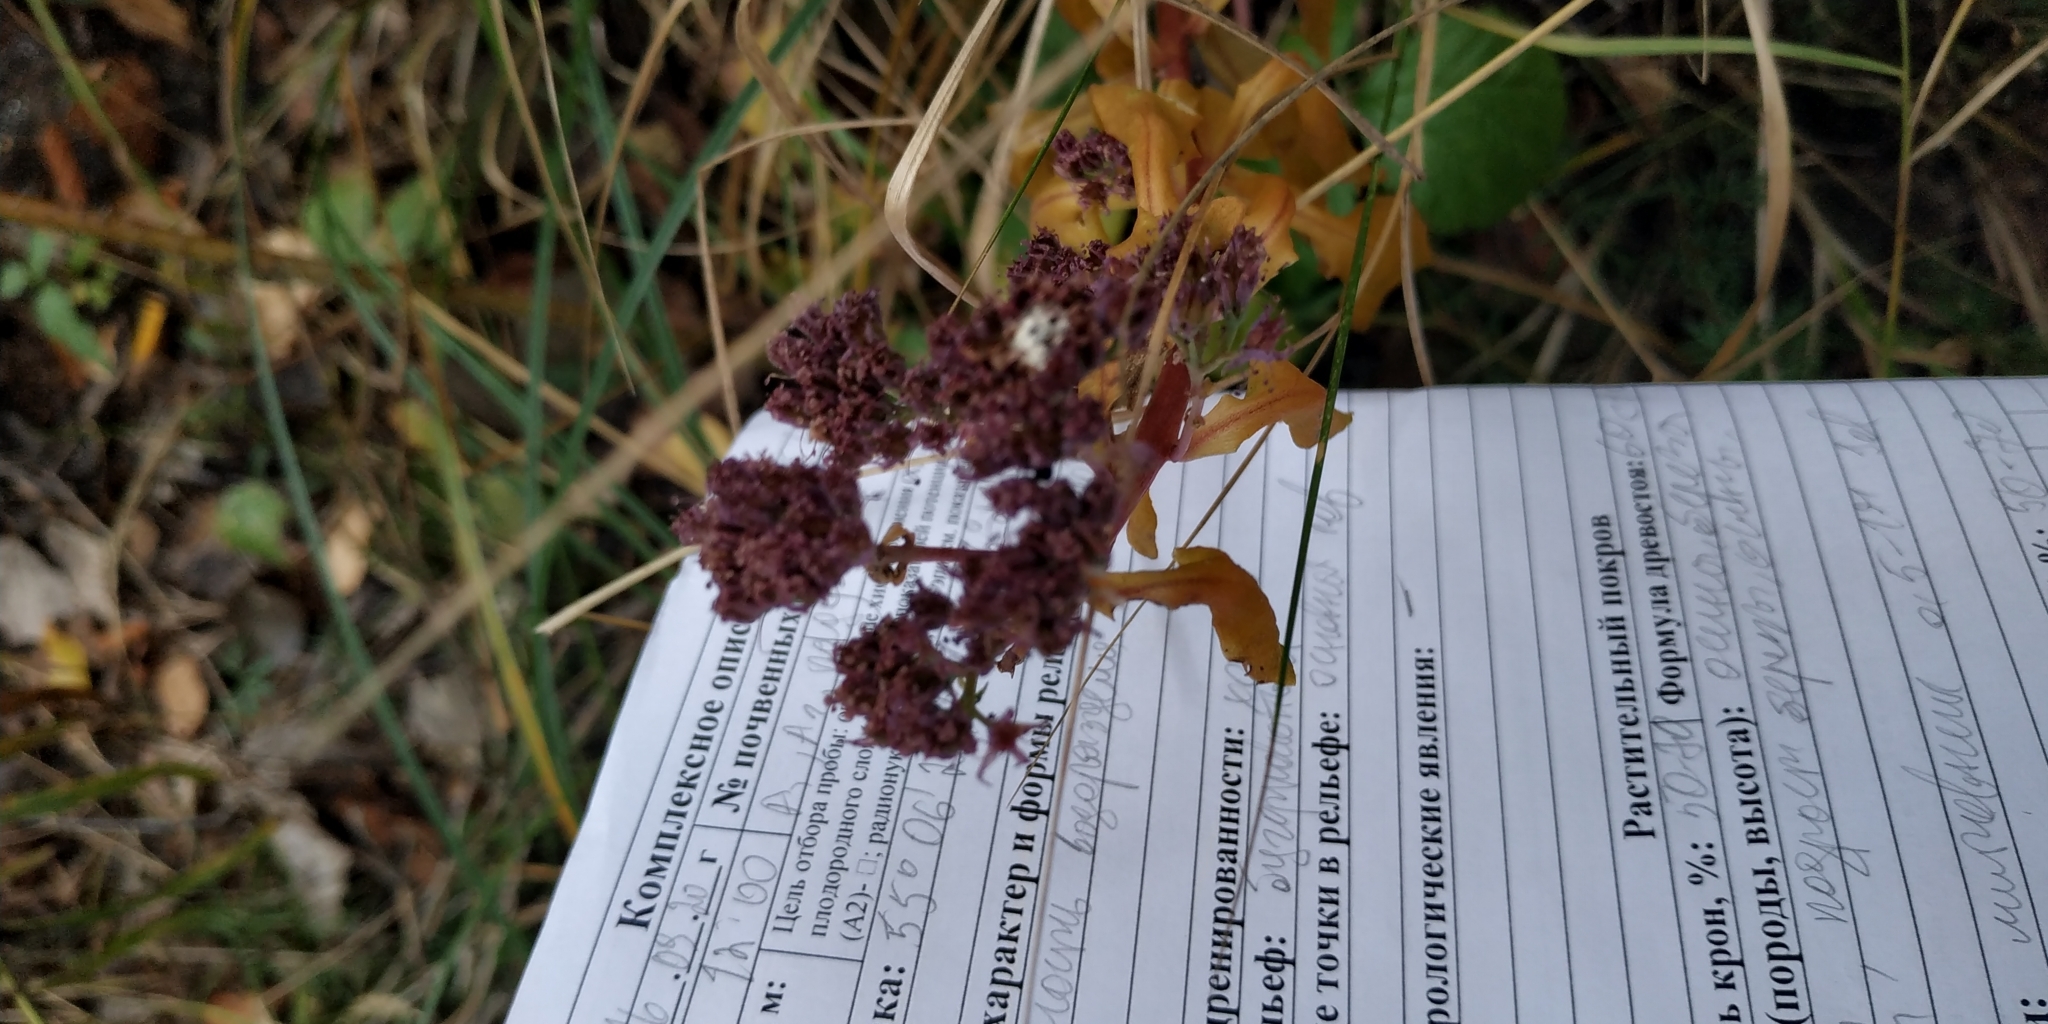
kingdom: Plantae
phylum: Tracheophyta
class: Magnoliopsida
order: Saxifragales
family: Crassulaceae
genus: Hylotelephium
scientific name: Hylotelephium telephium
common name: Live-forever
